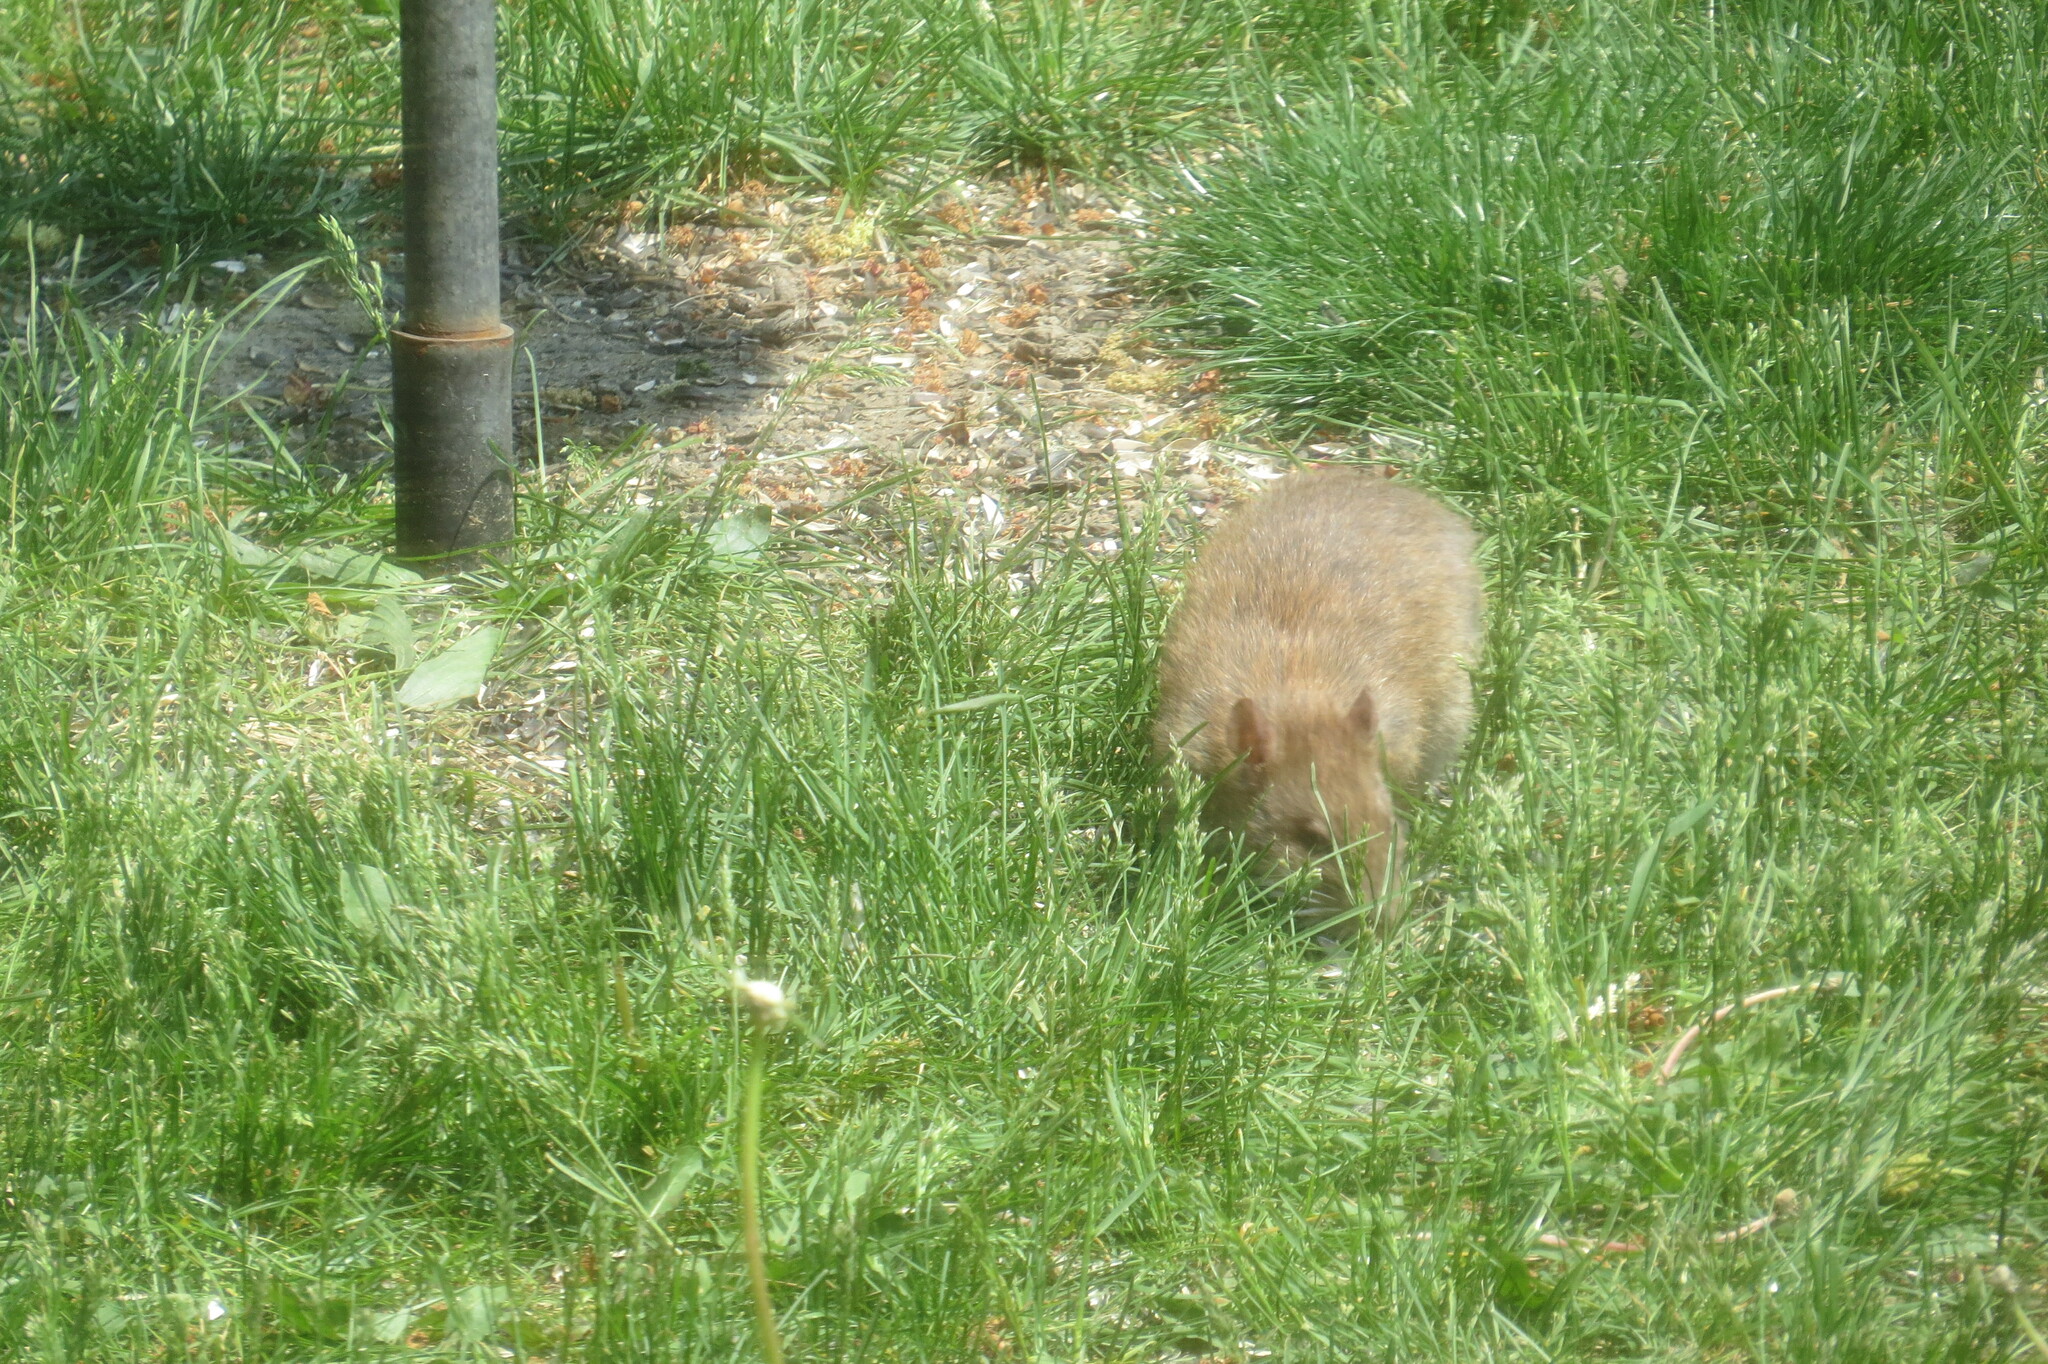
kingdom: Animalia
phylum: Chordata
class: Mammalia
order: Rodentia
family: Muridae
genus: Rattus
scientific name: Rattus norvegicus
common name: Brown rat
